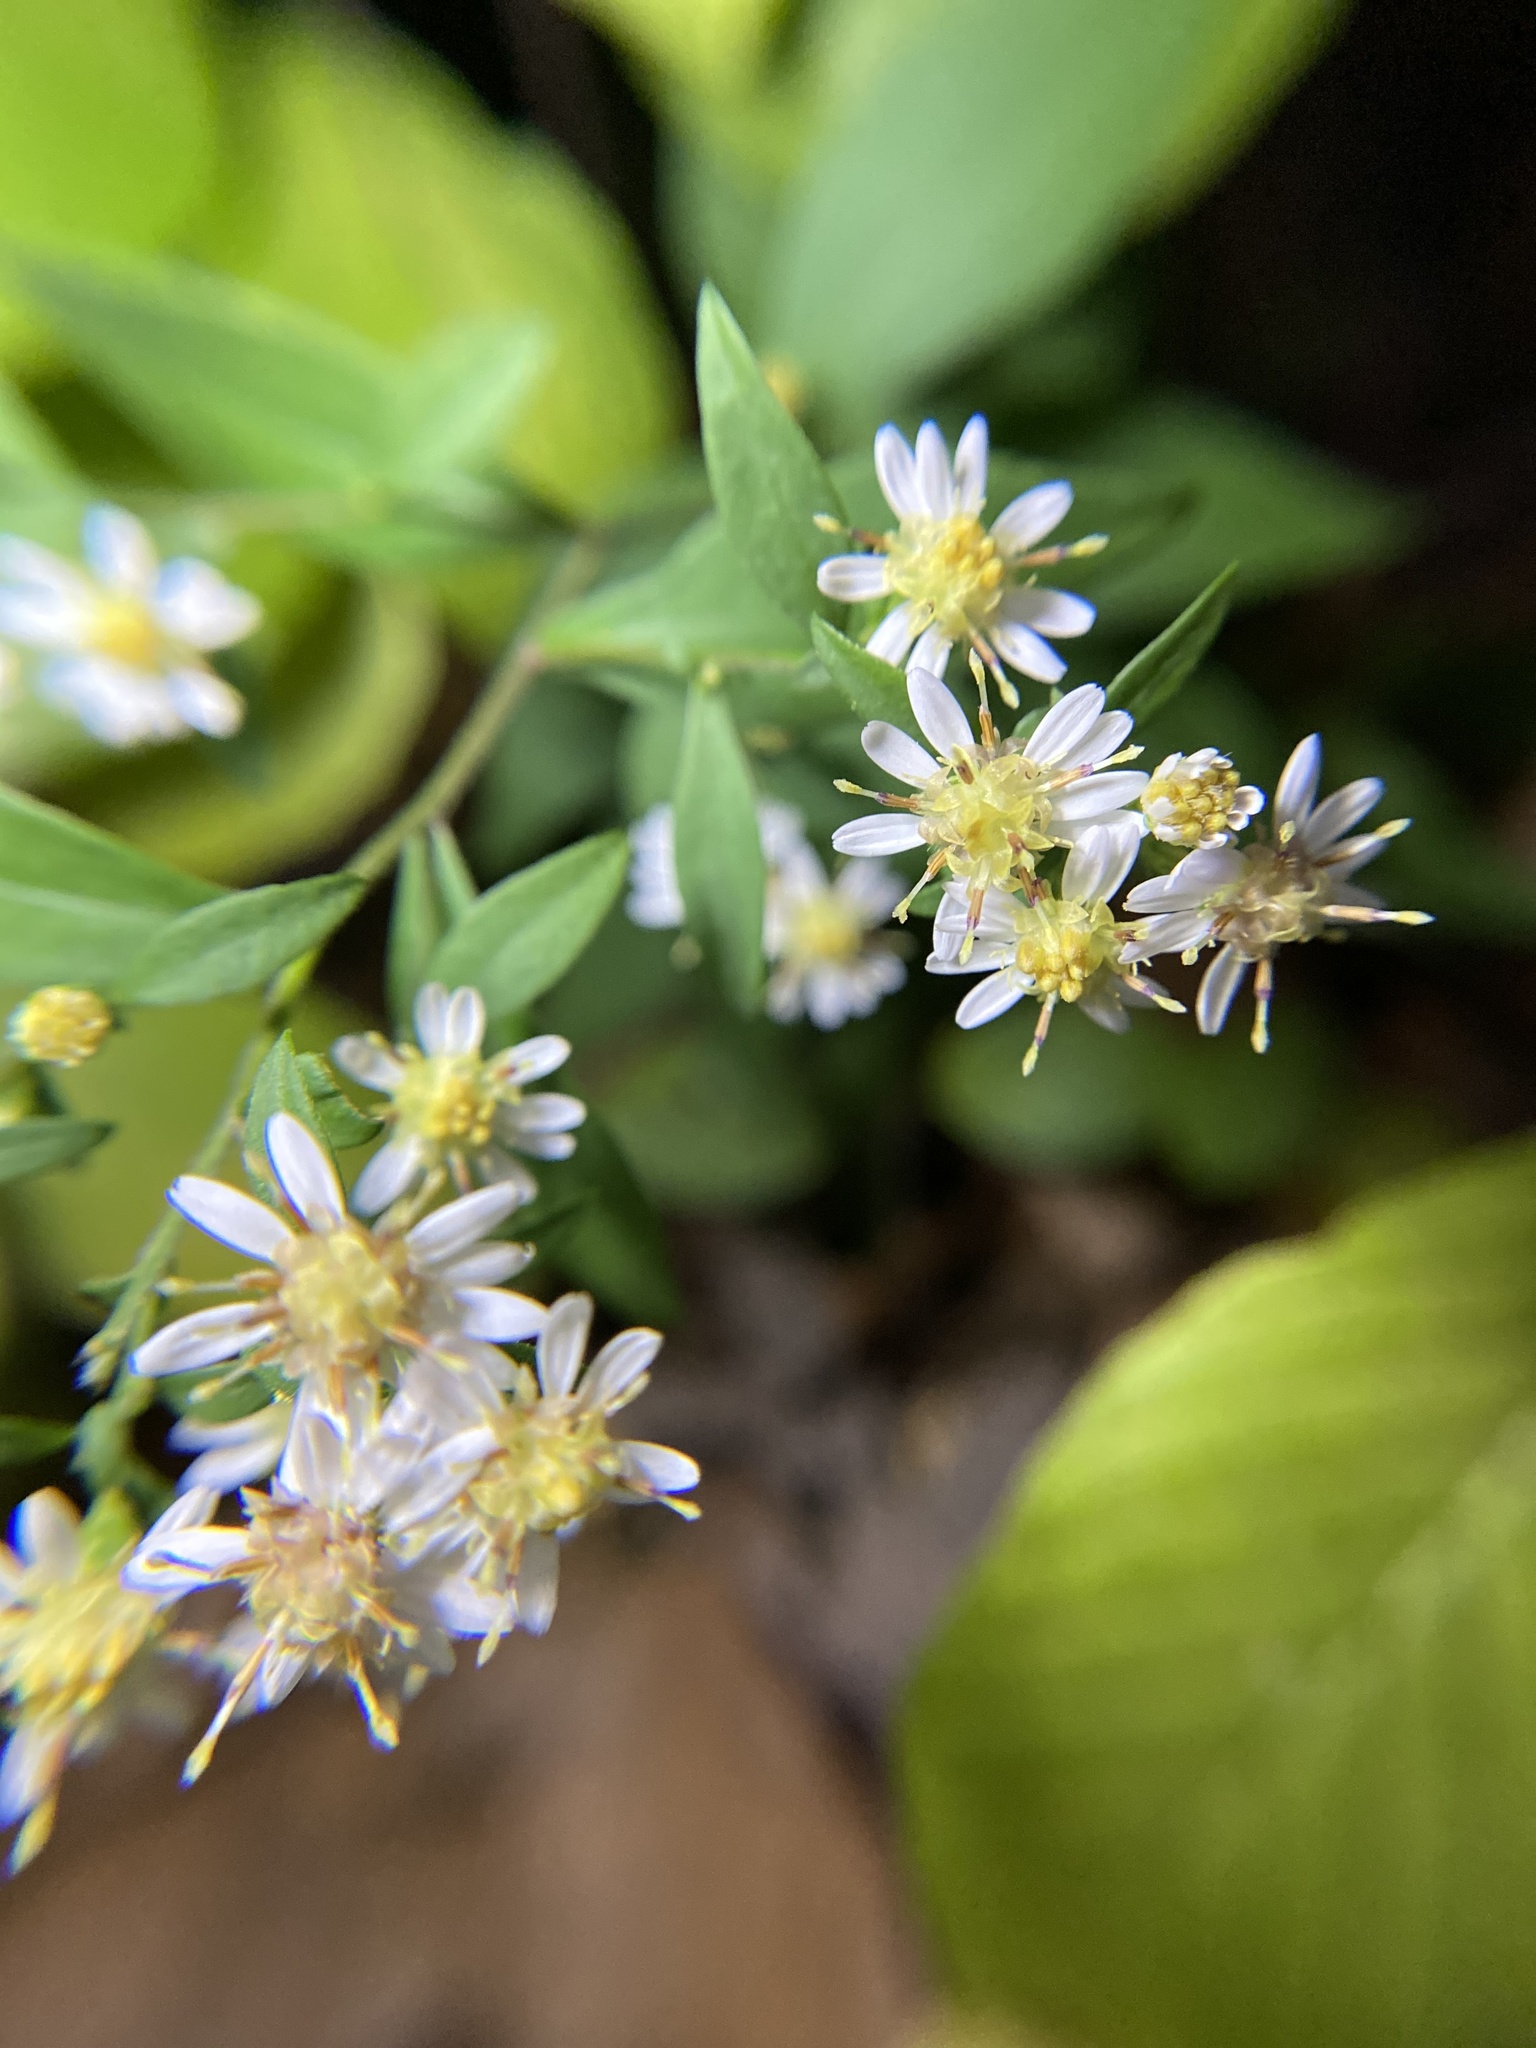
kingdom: Plantae
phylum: Tracheophyta
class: Magnoliopsida
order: Asterales
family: Asteraceae
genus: Symphyotrichum
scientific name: Symphyotrichum lateriflorum
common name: Calico aster
